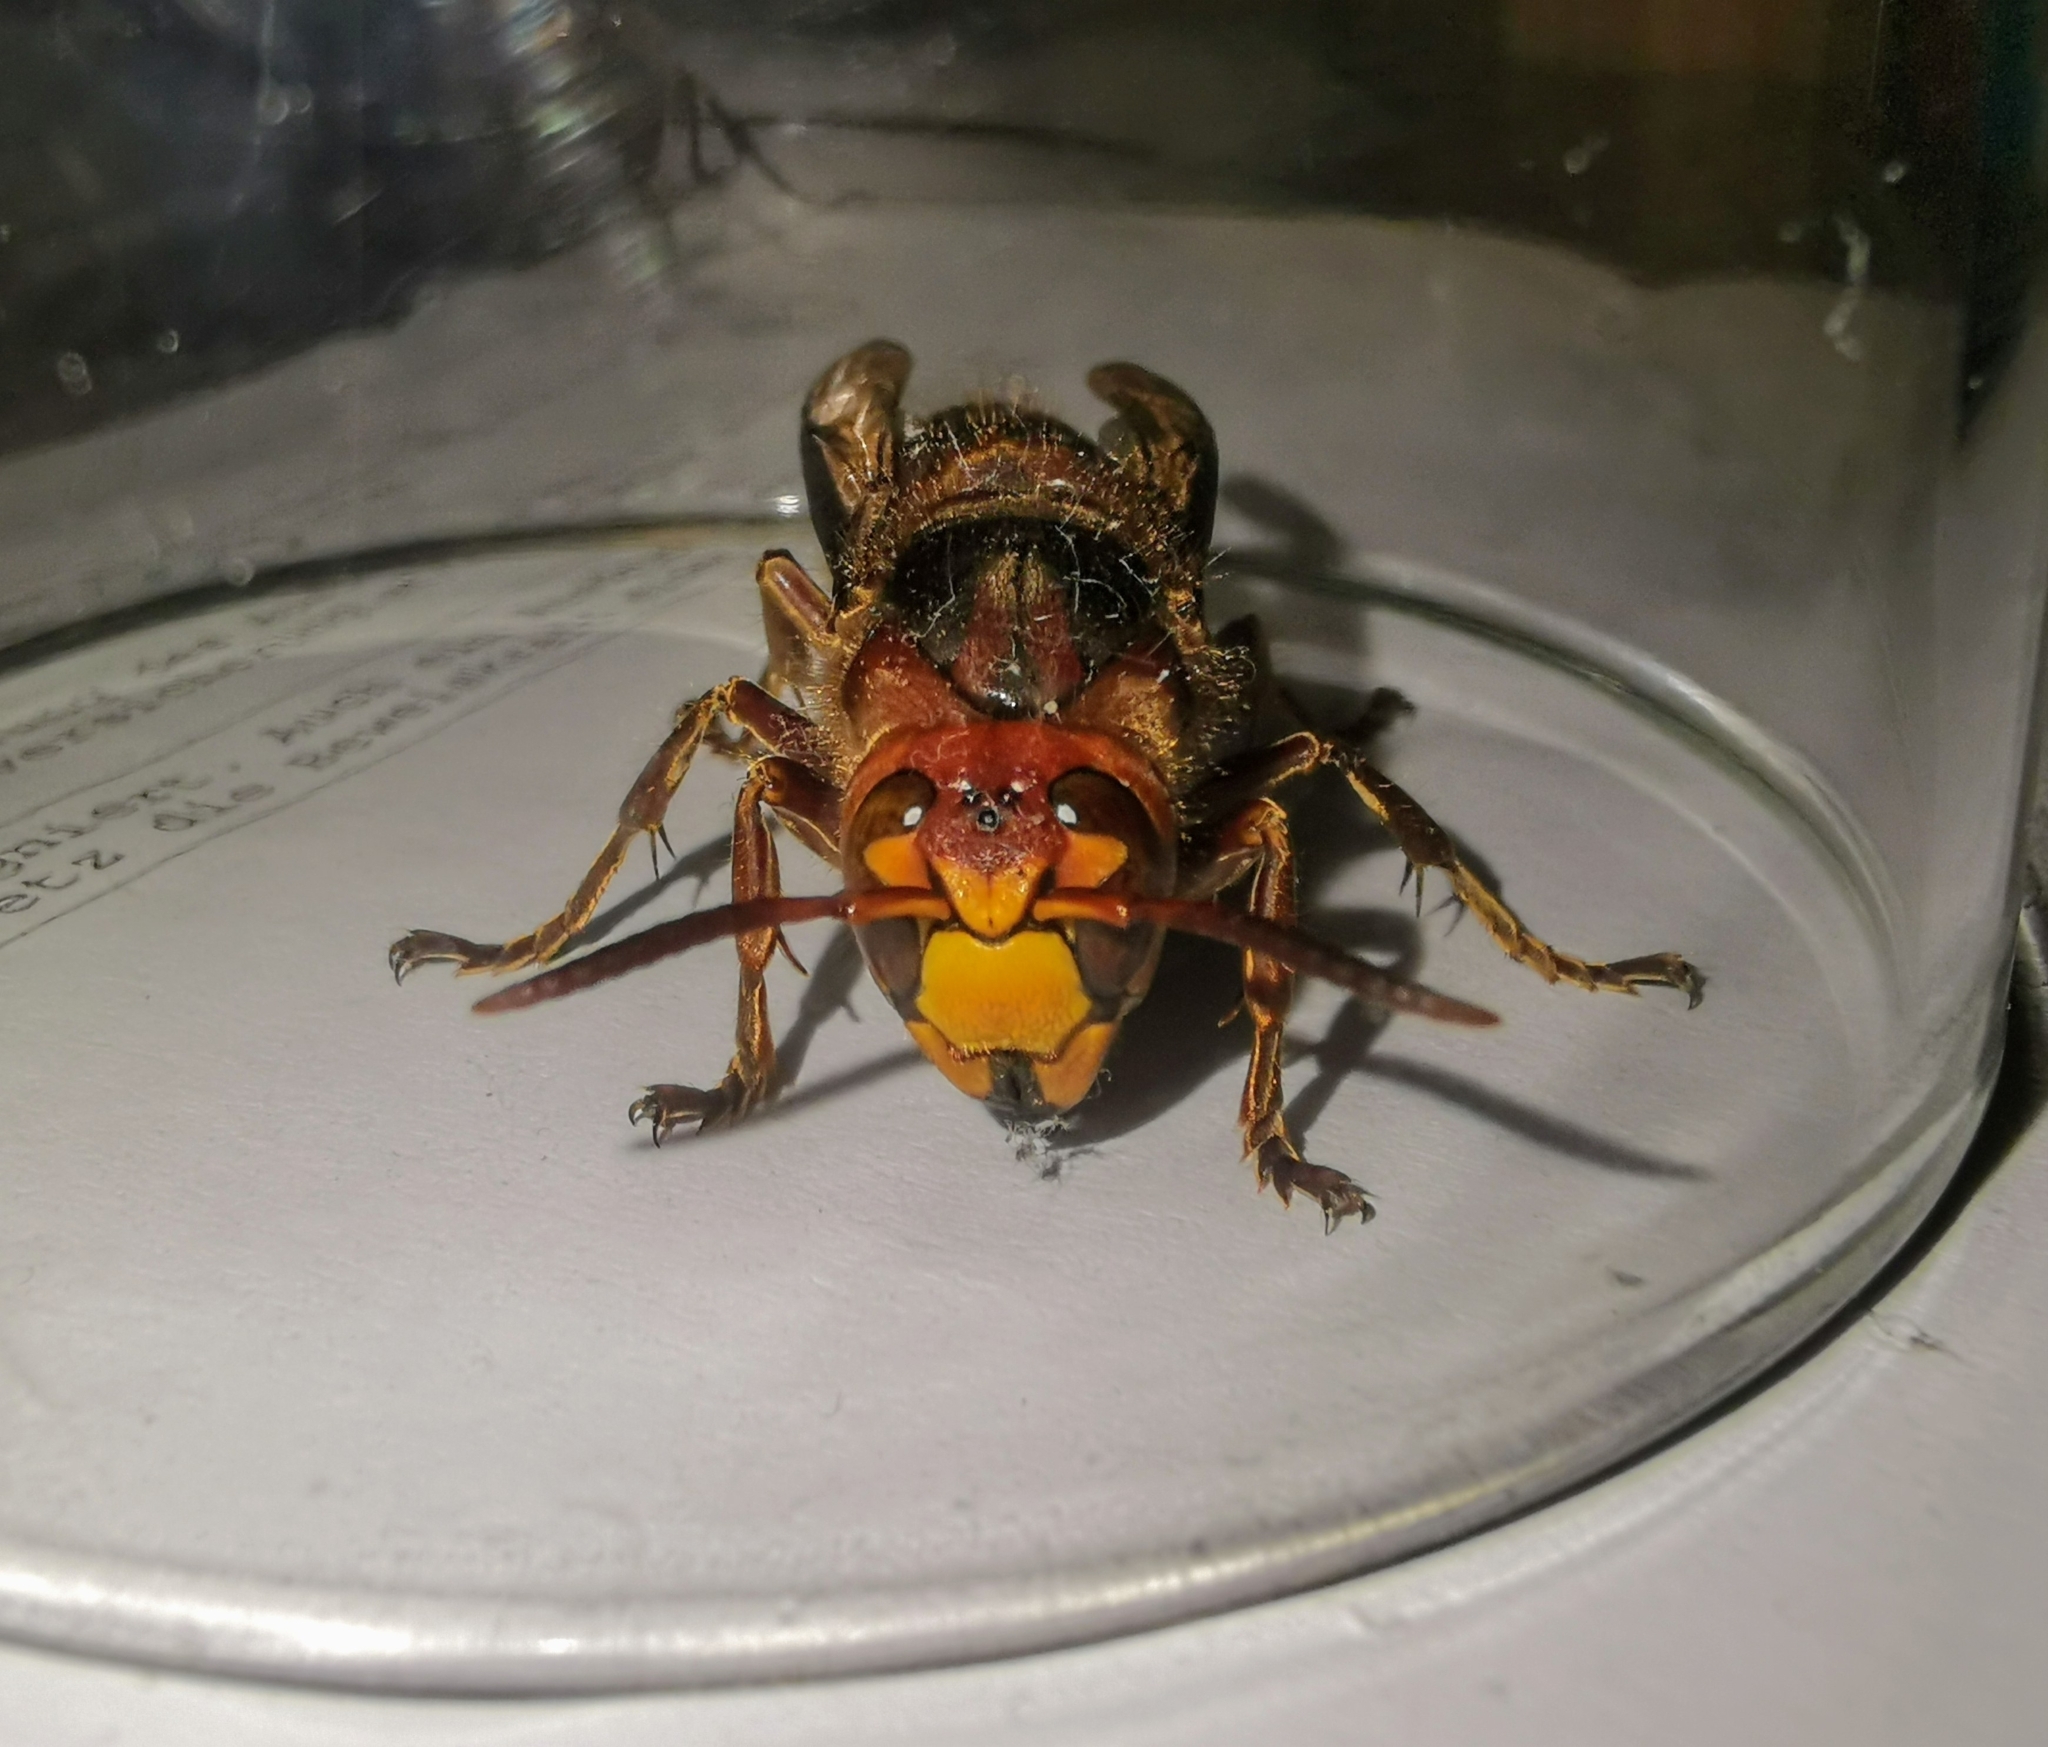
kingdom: Animalia
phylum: Arthropoda
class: Insecta
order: Hymenoptera
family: Vespidae
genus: Vespa
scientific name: Vespa crabro
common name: Hornet
